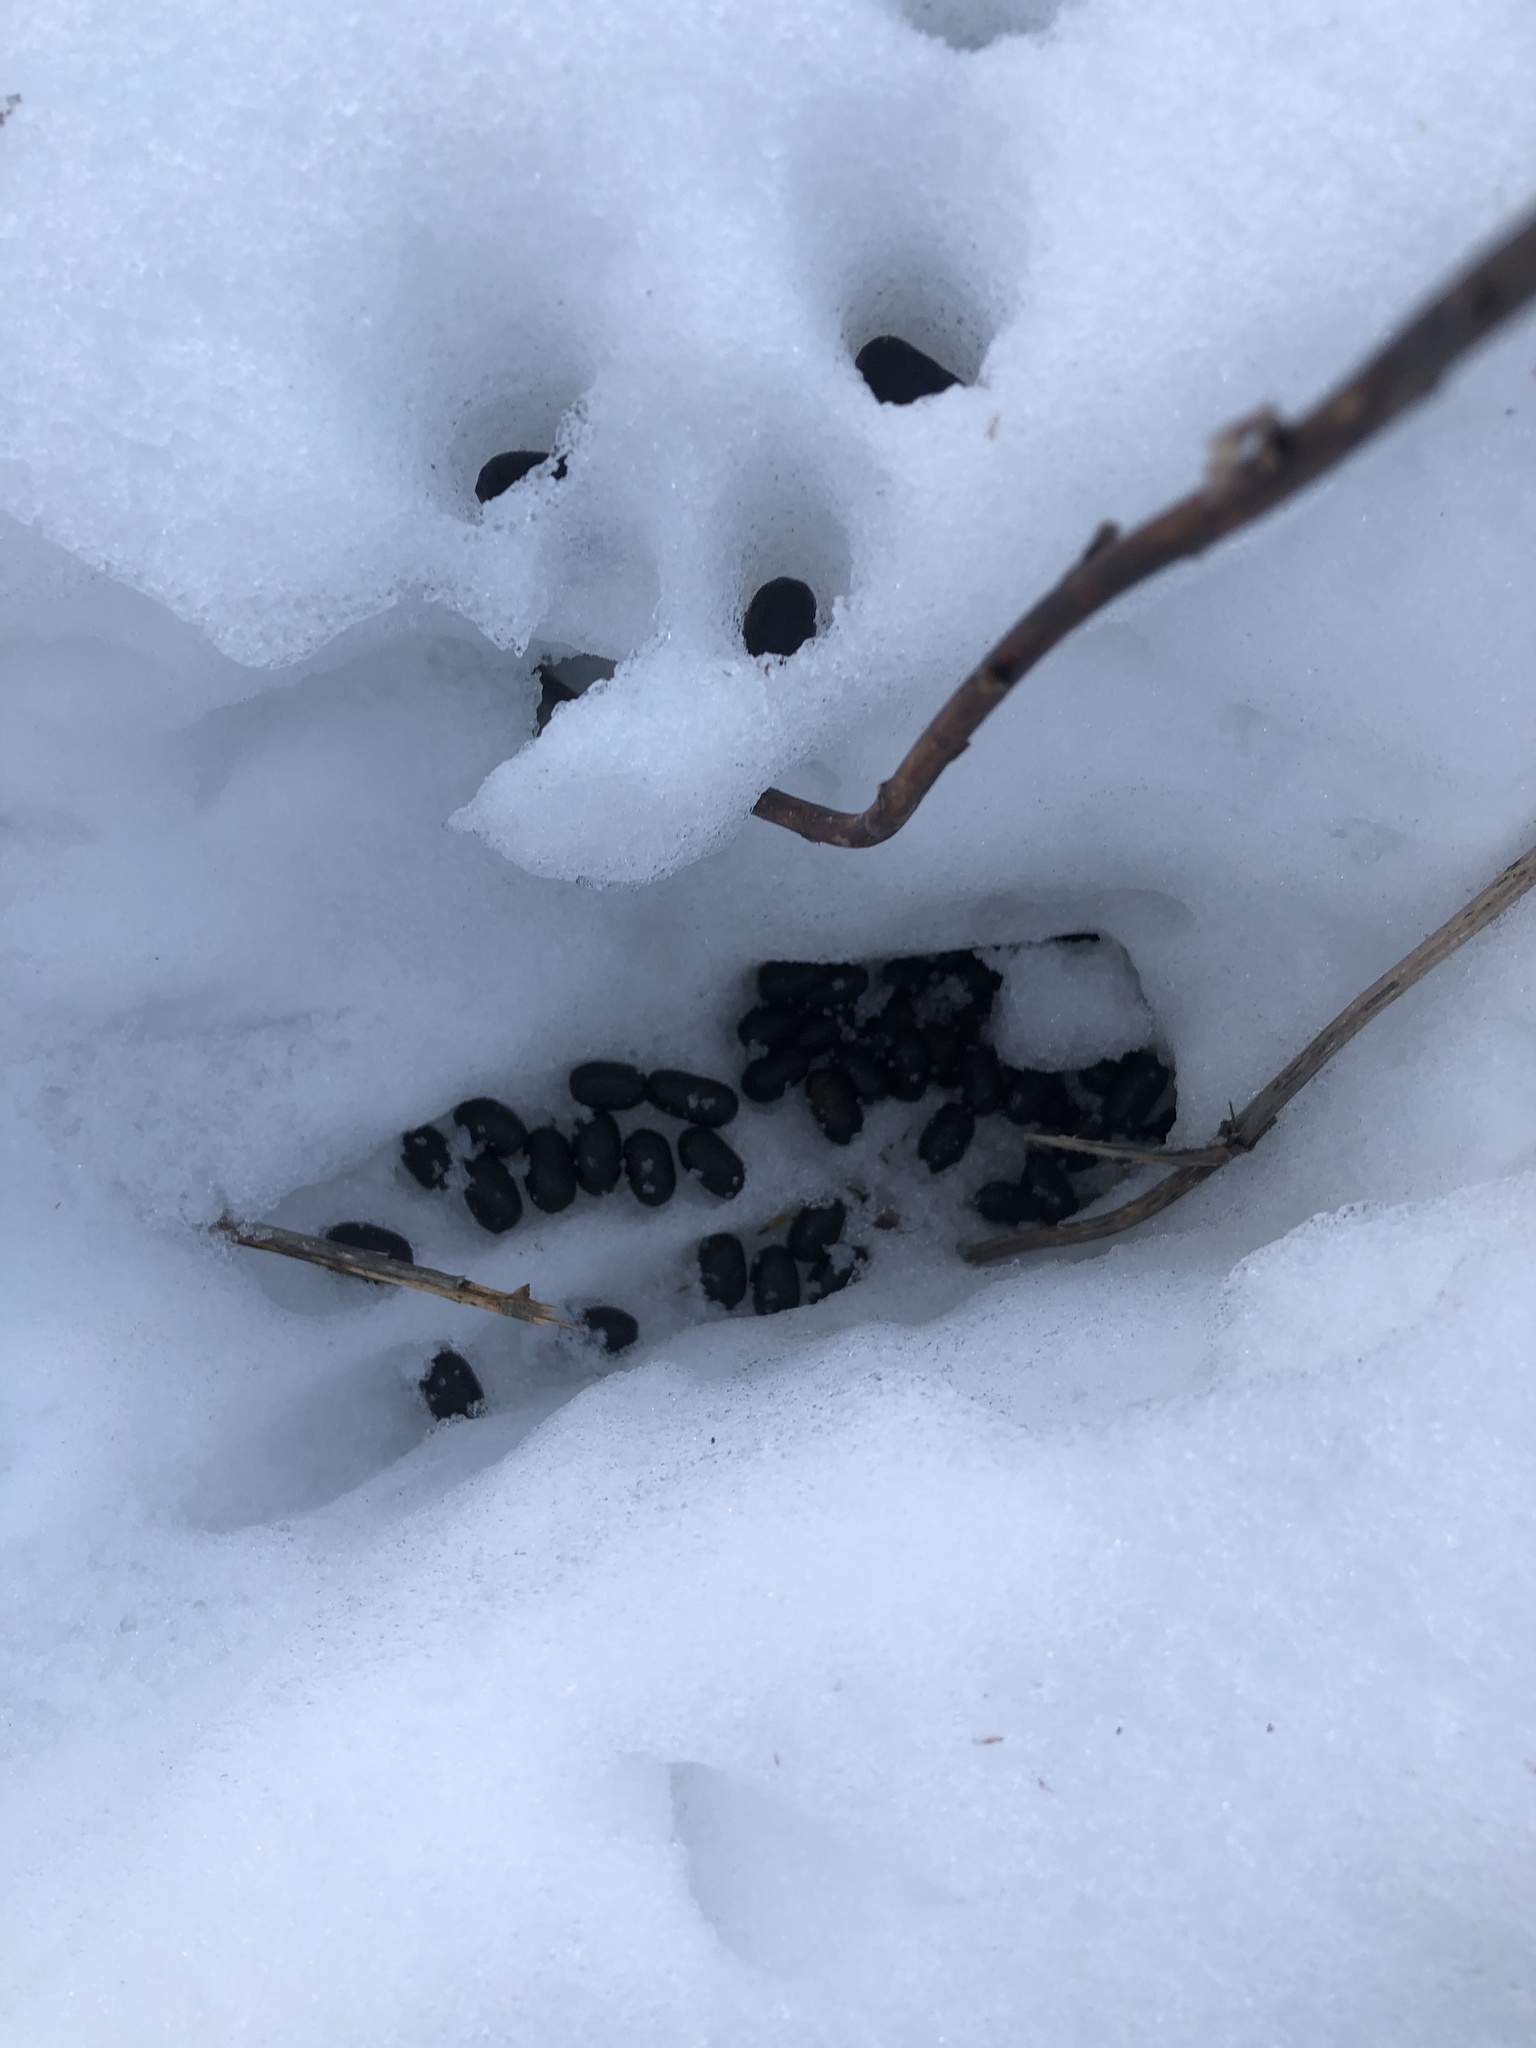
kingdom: Animalia
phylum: Chordata
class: Mammalia
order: Artiodactyla
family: Cervidae
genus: Odocoileus
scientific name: Odocoileus virginianus
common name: White-tailed deer
